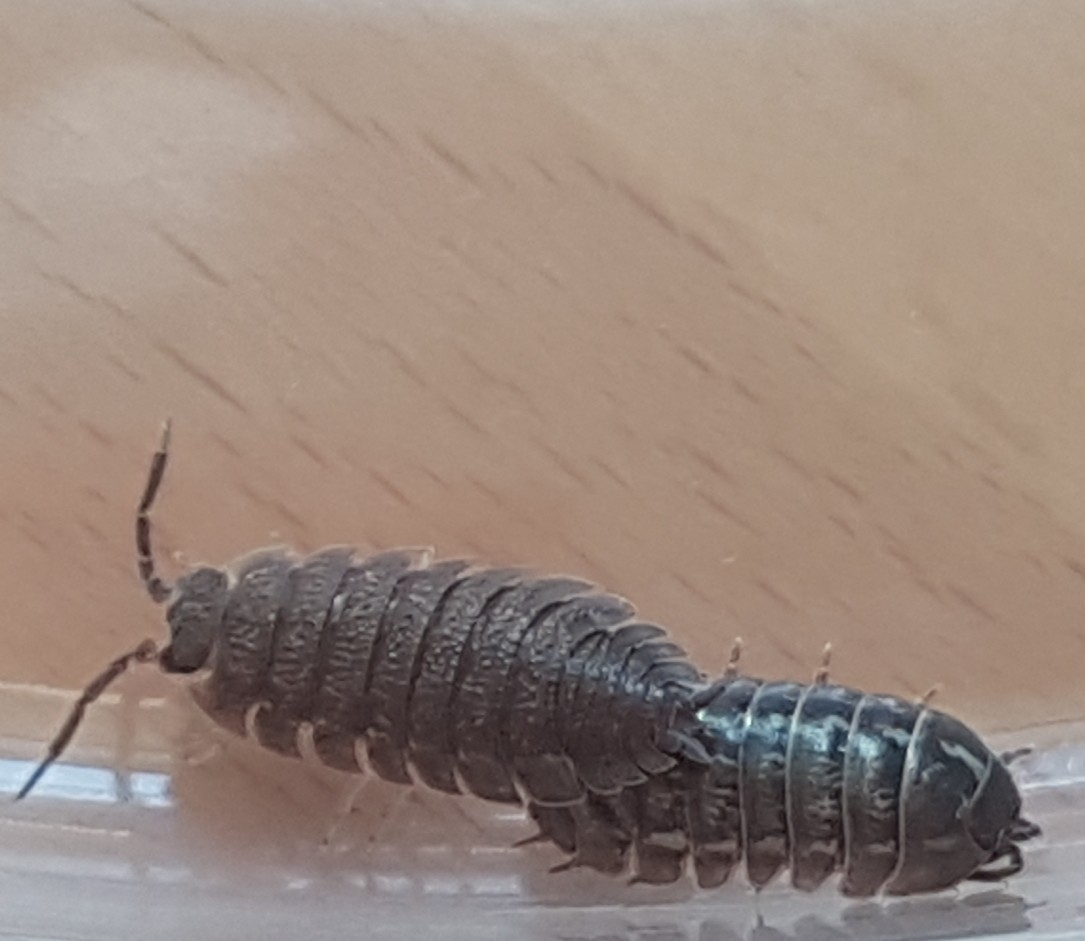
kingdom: Animalia
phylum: Arthropoda
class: Malacostraca
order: Isopoda
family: Armadillidiidae
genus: Armadillidium
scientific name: Armadillidium vulgare
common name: Common pill woodlouse
